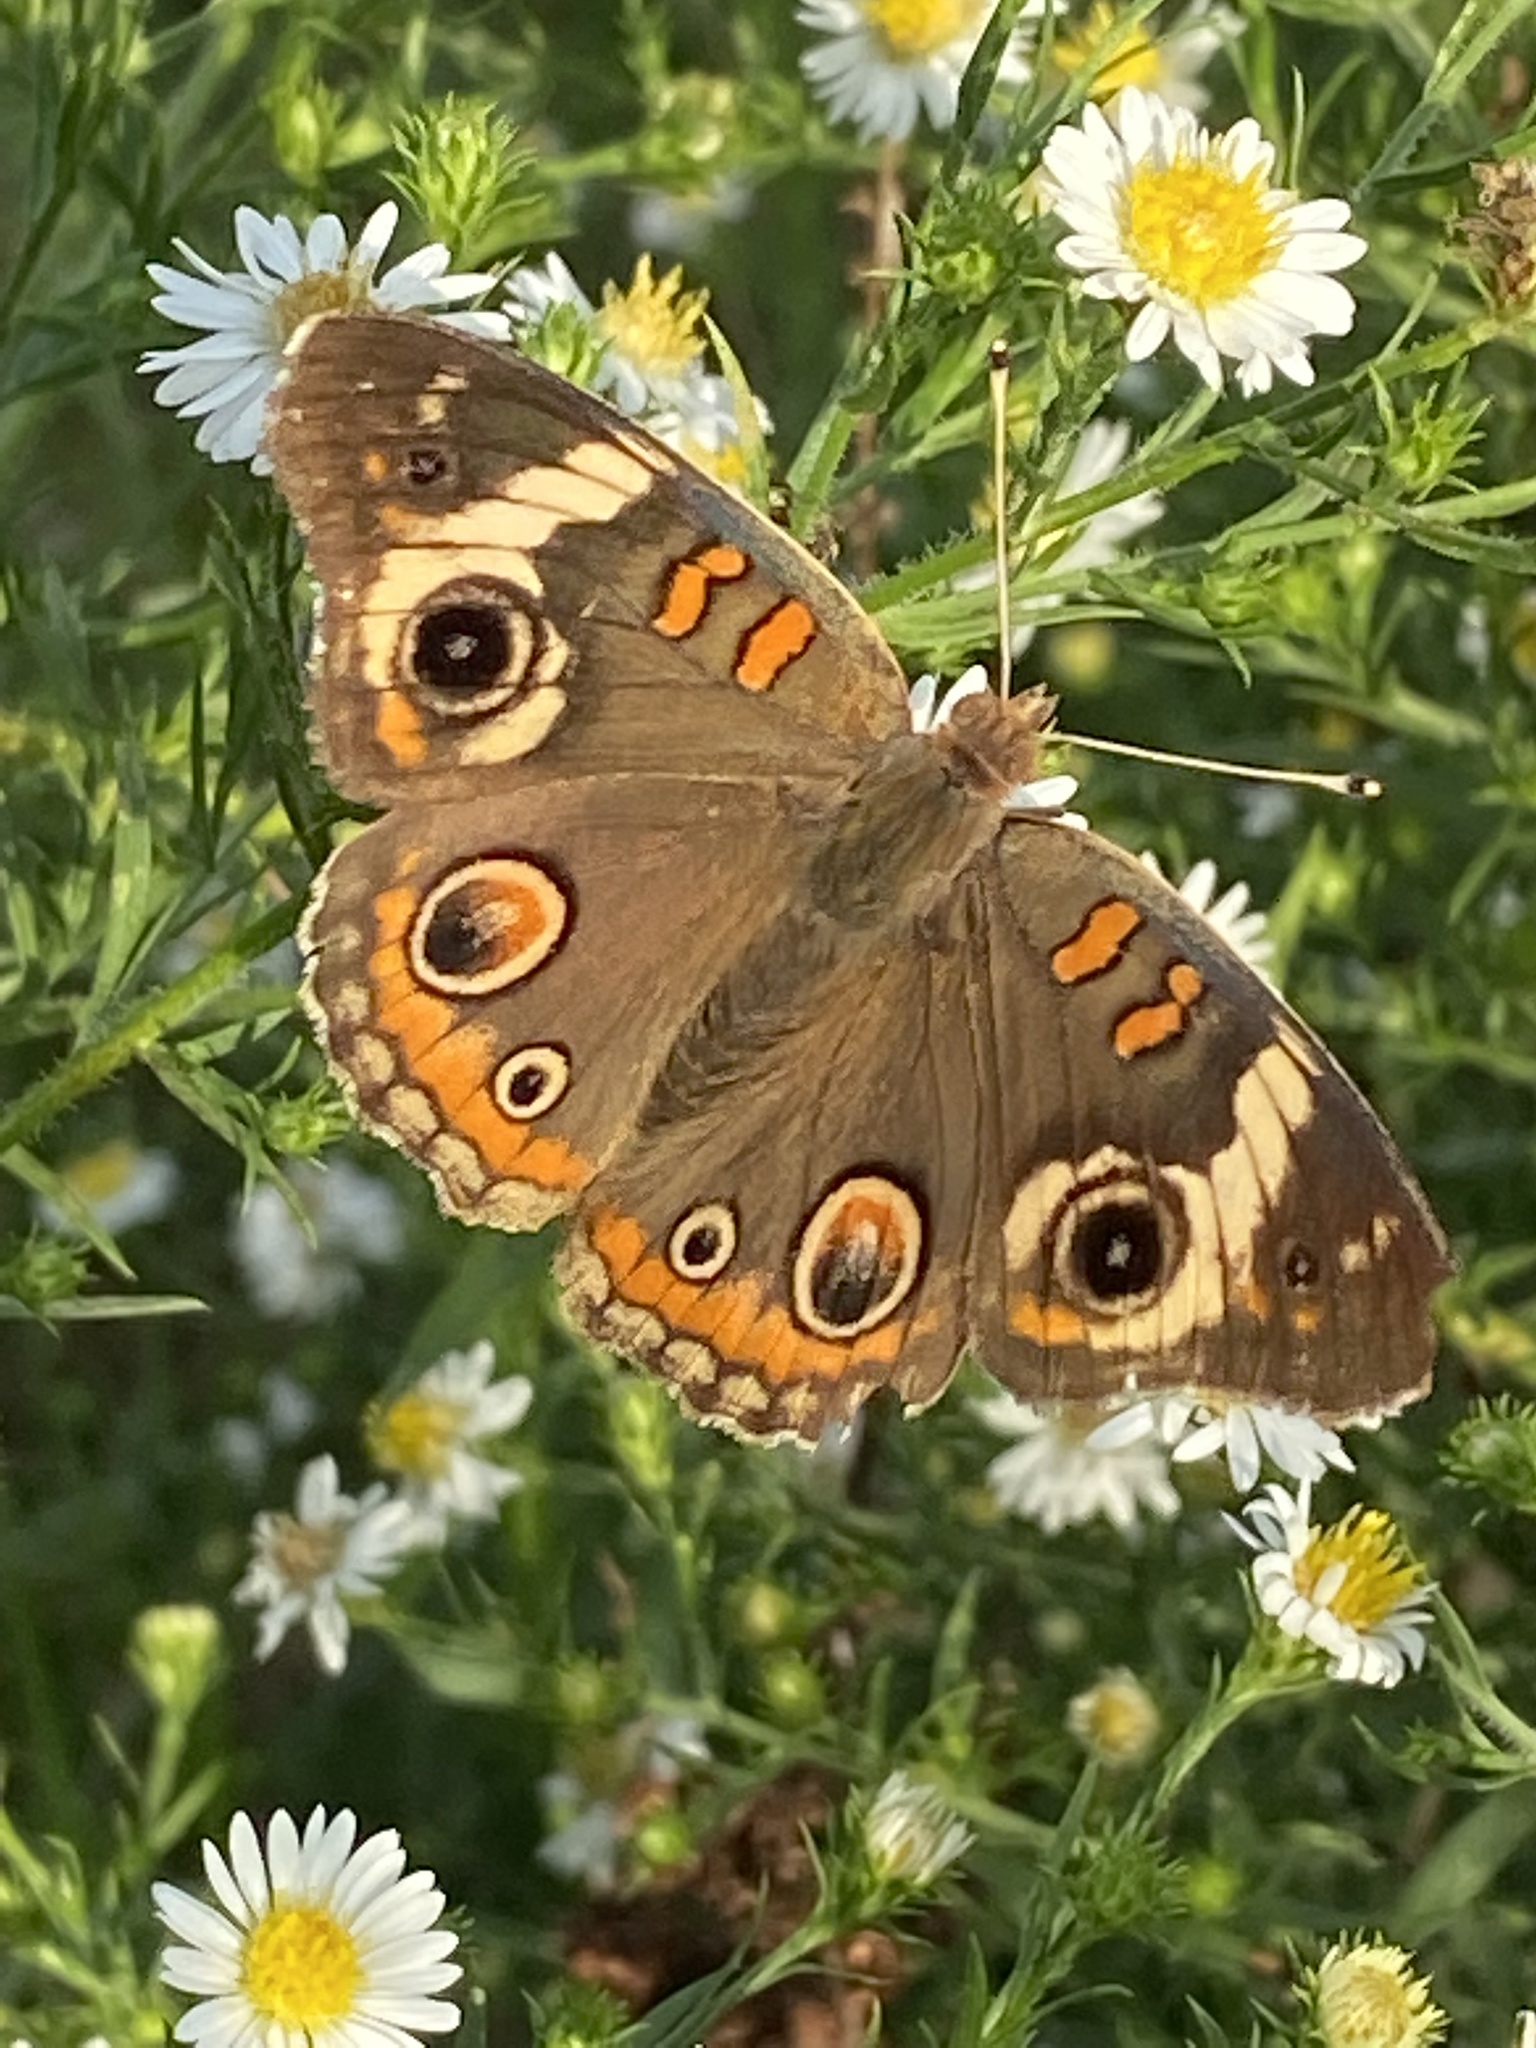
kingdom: Animalia
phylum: Arthropoda
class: Insecta
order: Lepidoptera
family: Nymphalidae
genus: Junonia
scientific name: Junonia coenia
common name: Common buckeye
